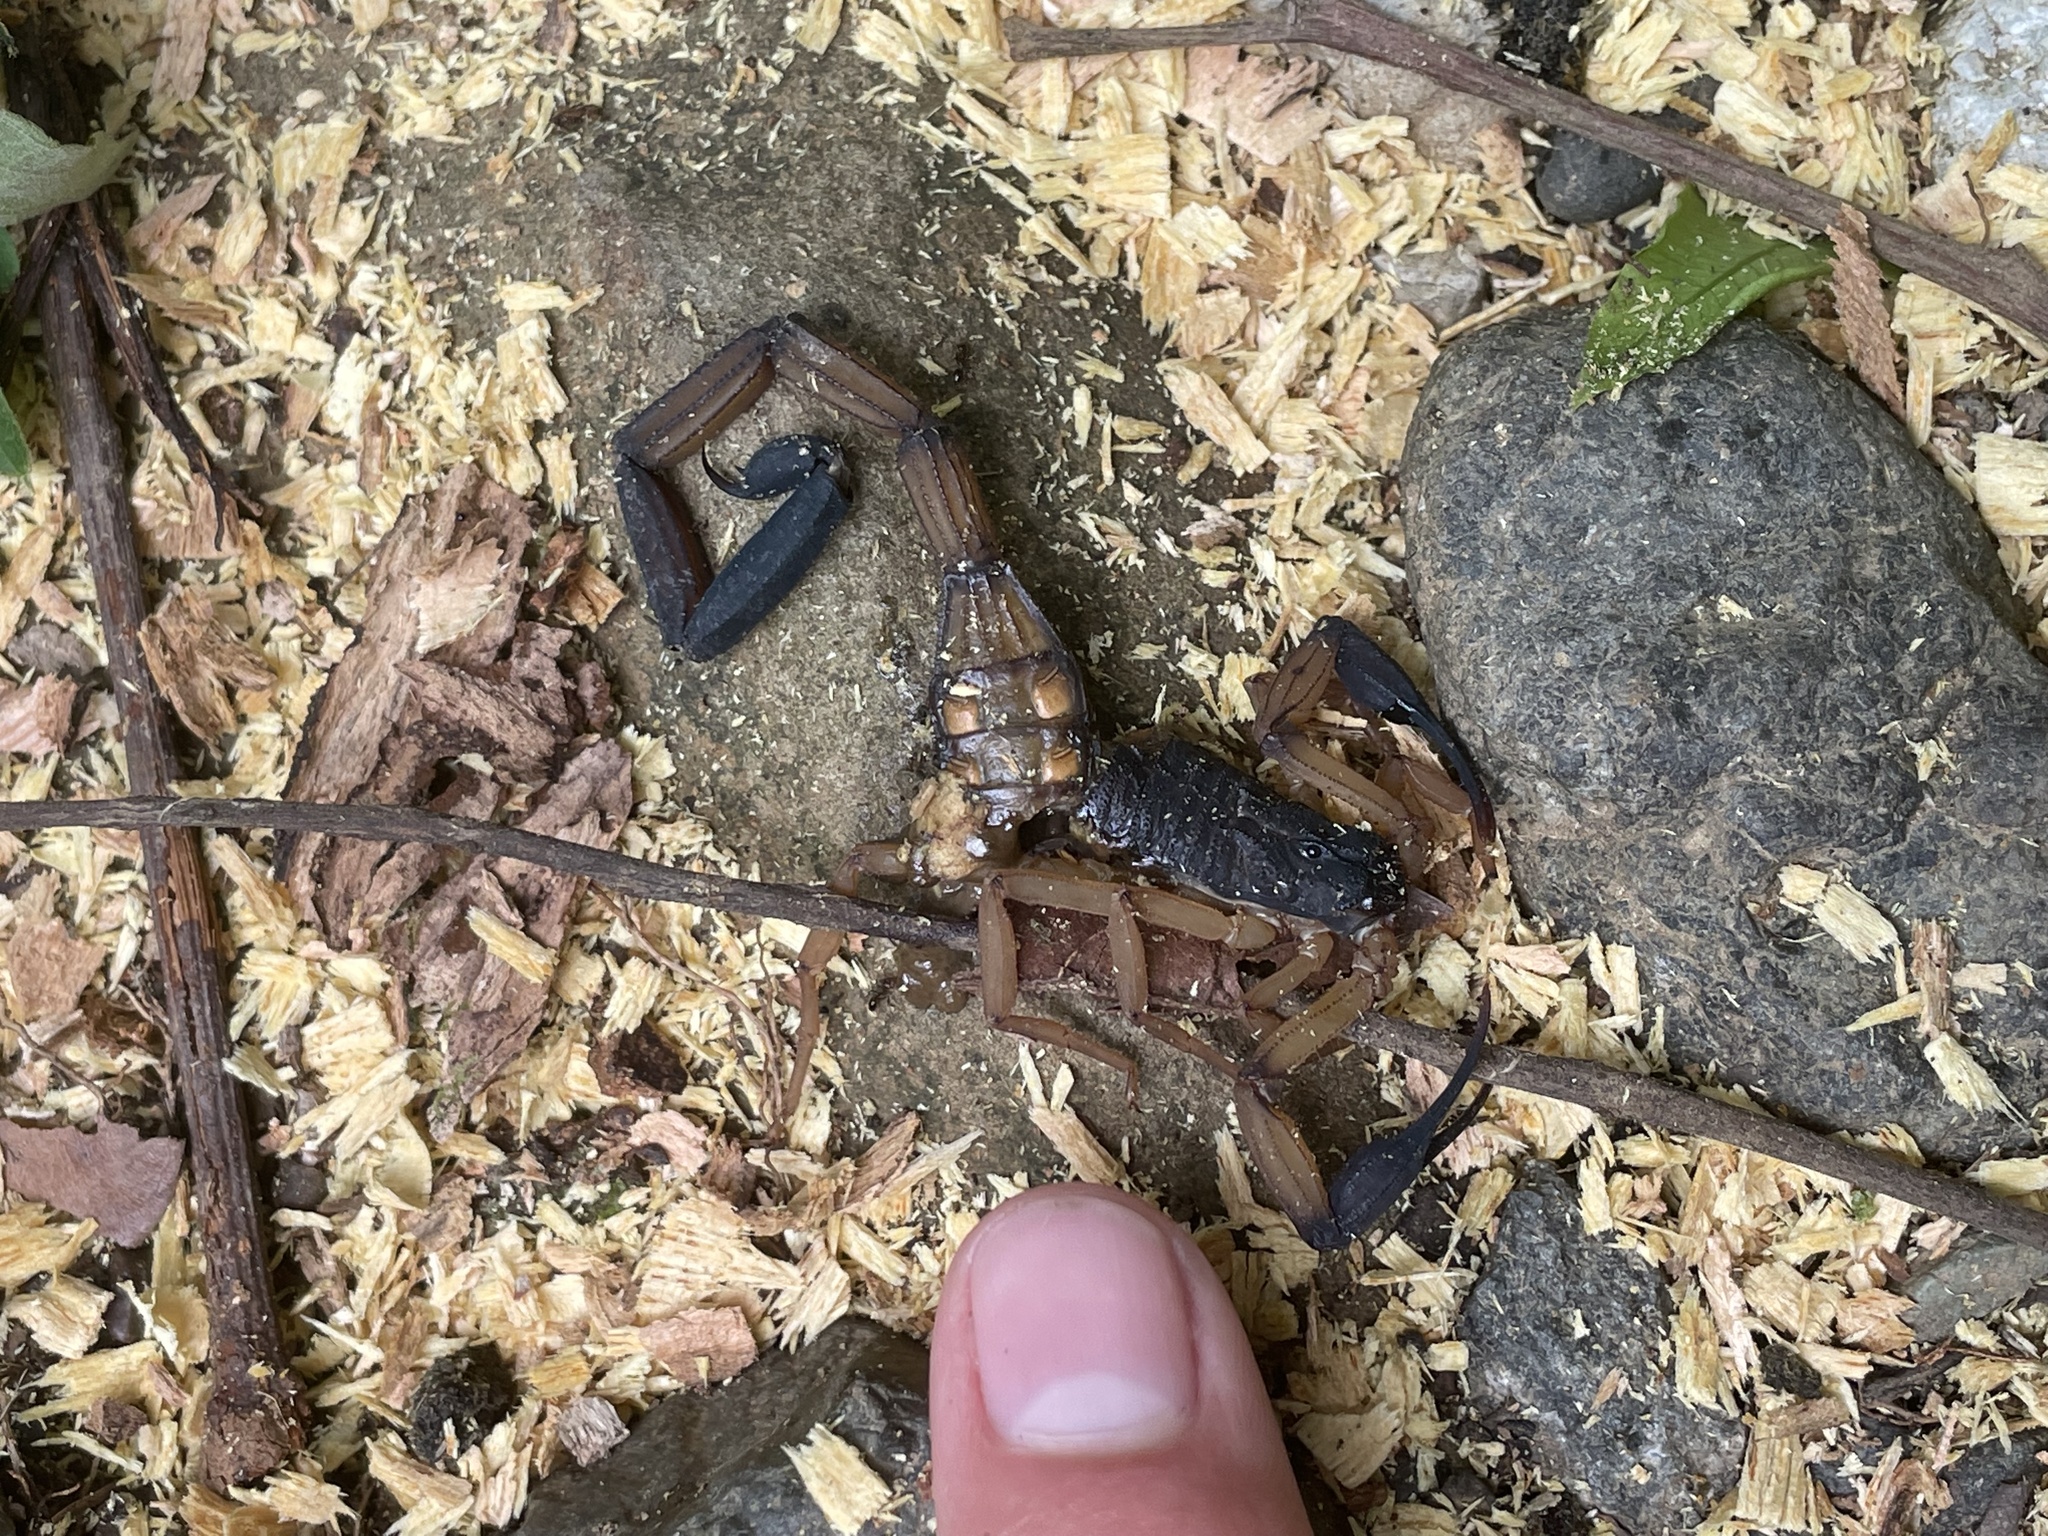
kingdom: Animalia
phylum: Arthropoda
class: Arachnida
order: Scorpiones
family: Buthidae
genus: Centruroides
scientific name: Centruroides bicolor
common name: Scorpions
